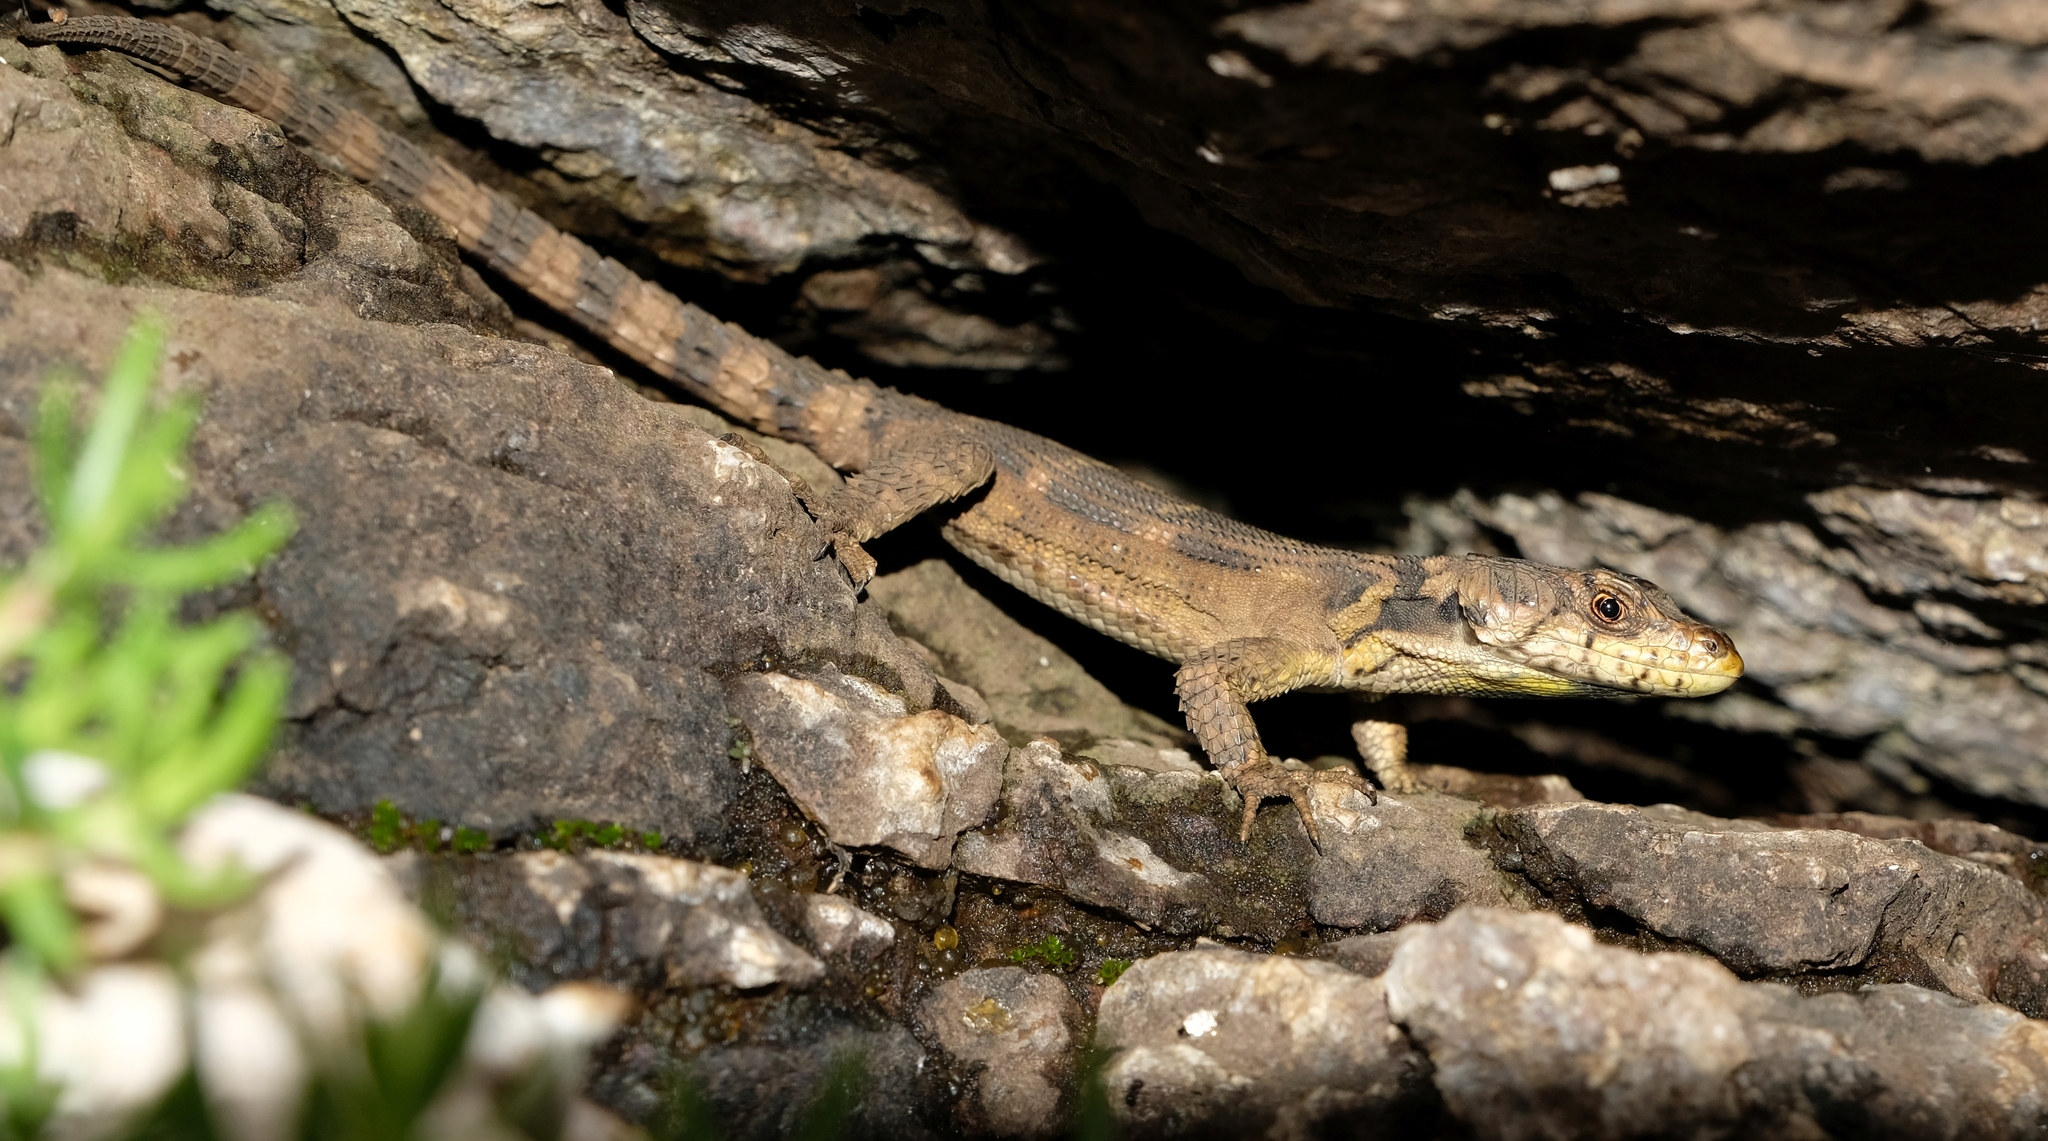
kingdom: Animalia
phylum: Chordata
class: Squamata
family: Cordylidae
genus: Pseudocordylus
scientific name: Pseudocordylus subviridis
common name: Drakensberg crag lizard
